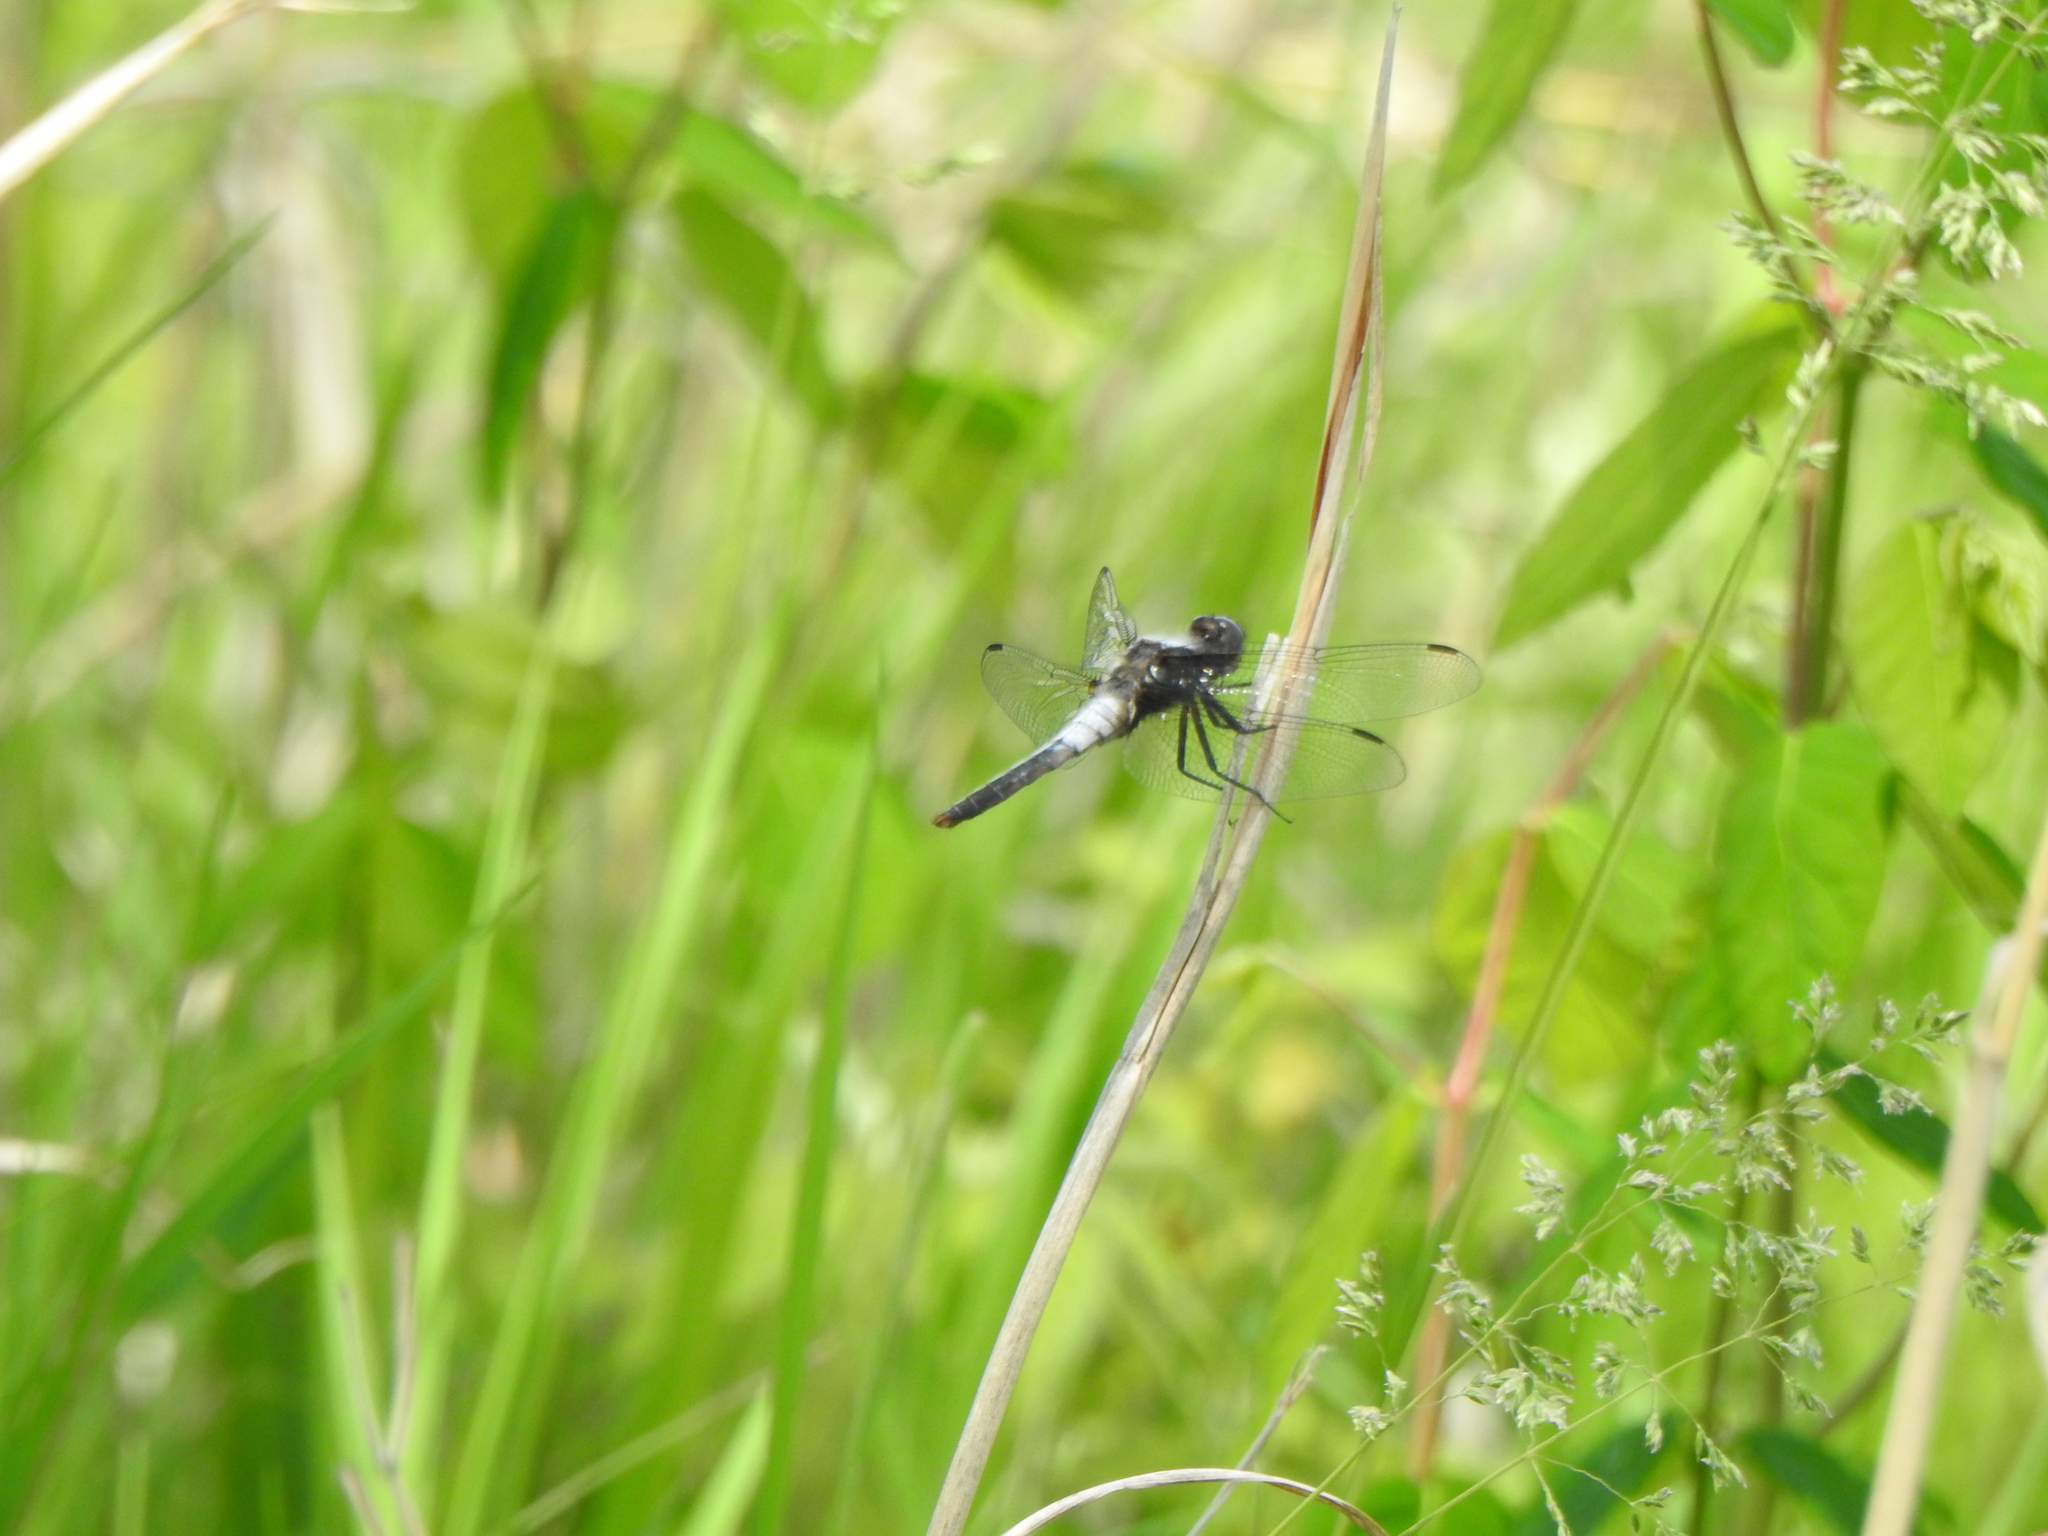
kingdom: Animalia
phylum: Arthropoda
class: Insecta
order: Odonata
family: Libellulidae
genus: Ladona
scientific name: Ladona julia
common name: Chalk-fronted corporal
